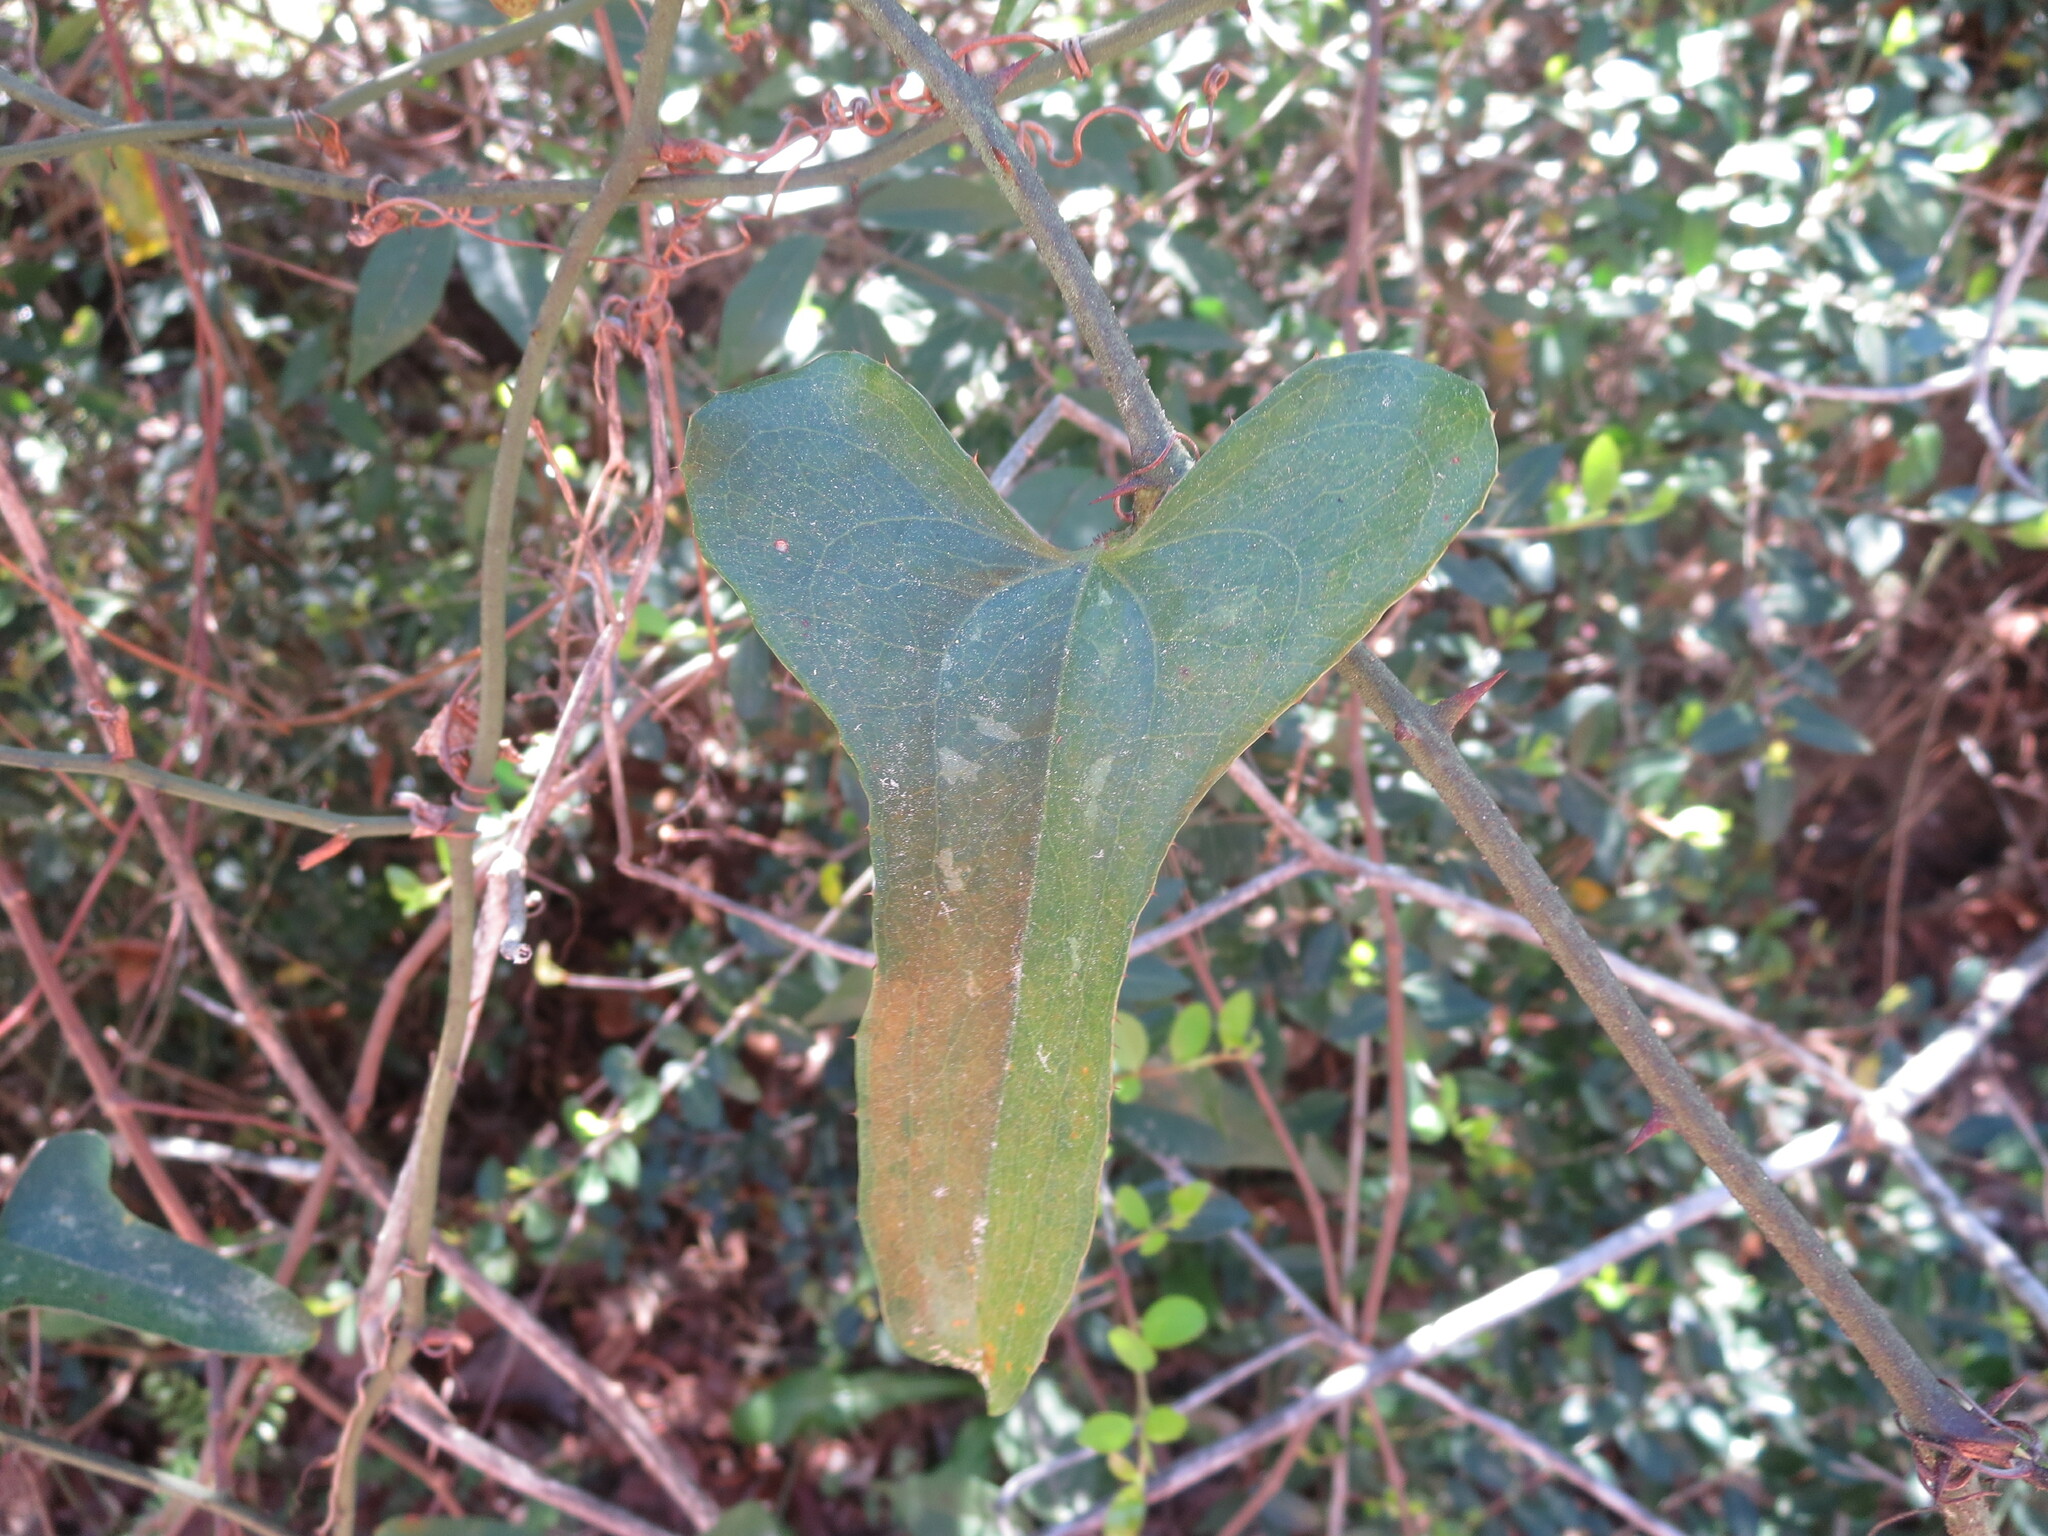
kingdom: Plantae
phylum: Tracheophyta
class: Liliopsida
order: Liliales
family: Smilacaceae
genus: Smilax
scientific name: Smilax bona-nox
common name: Catbrier
